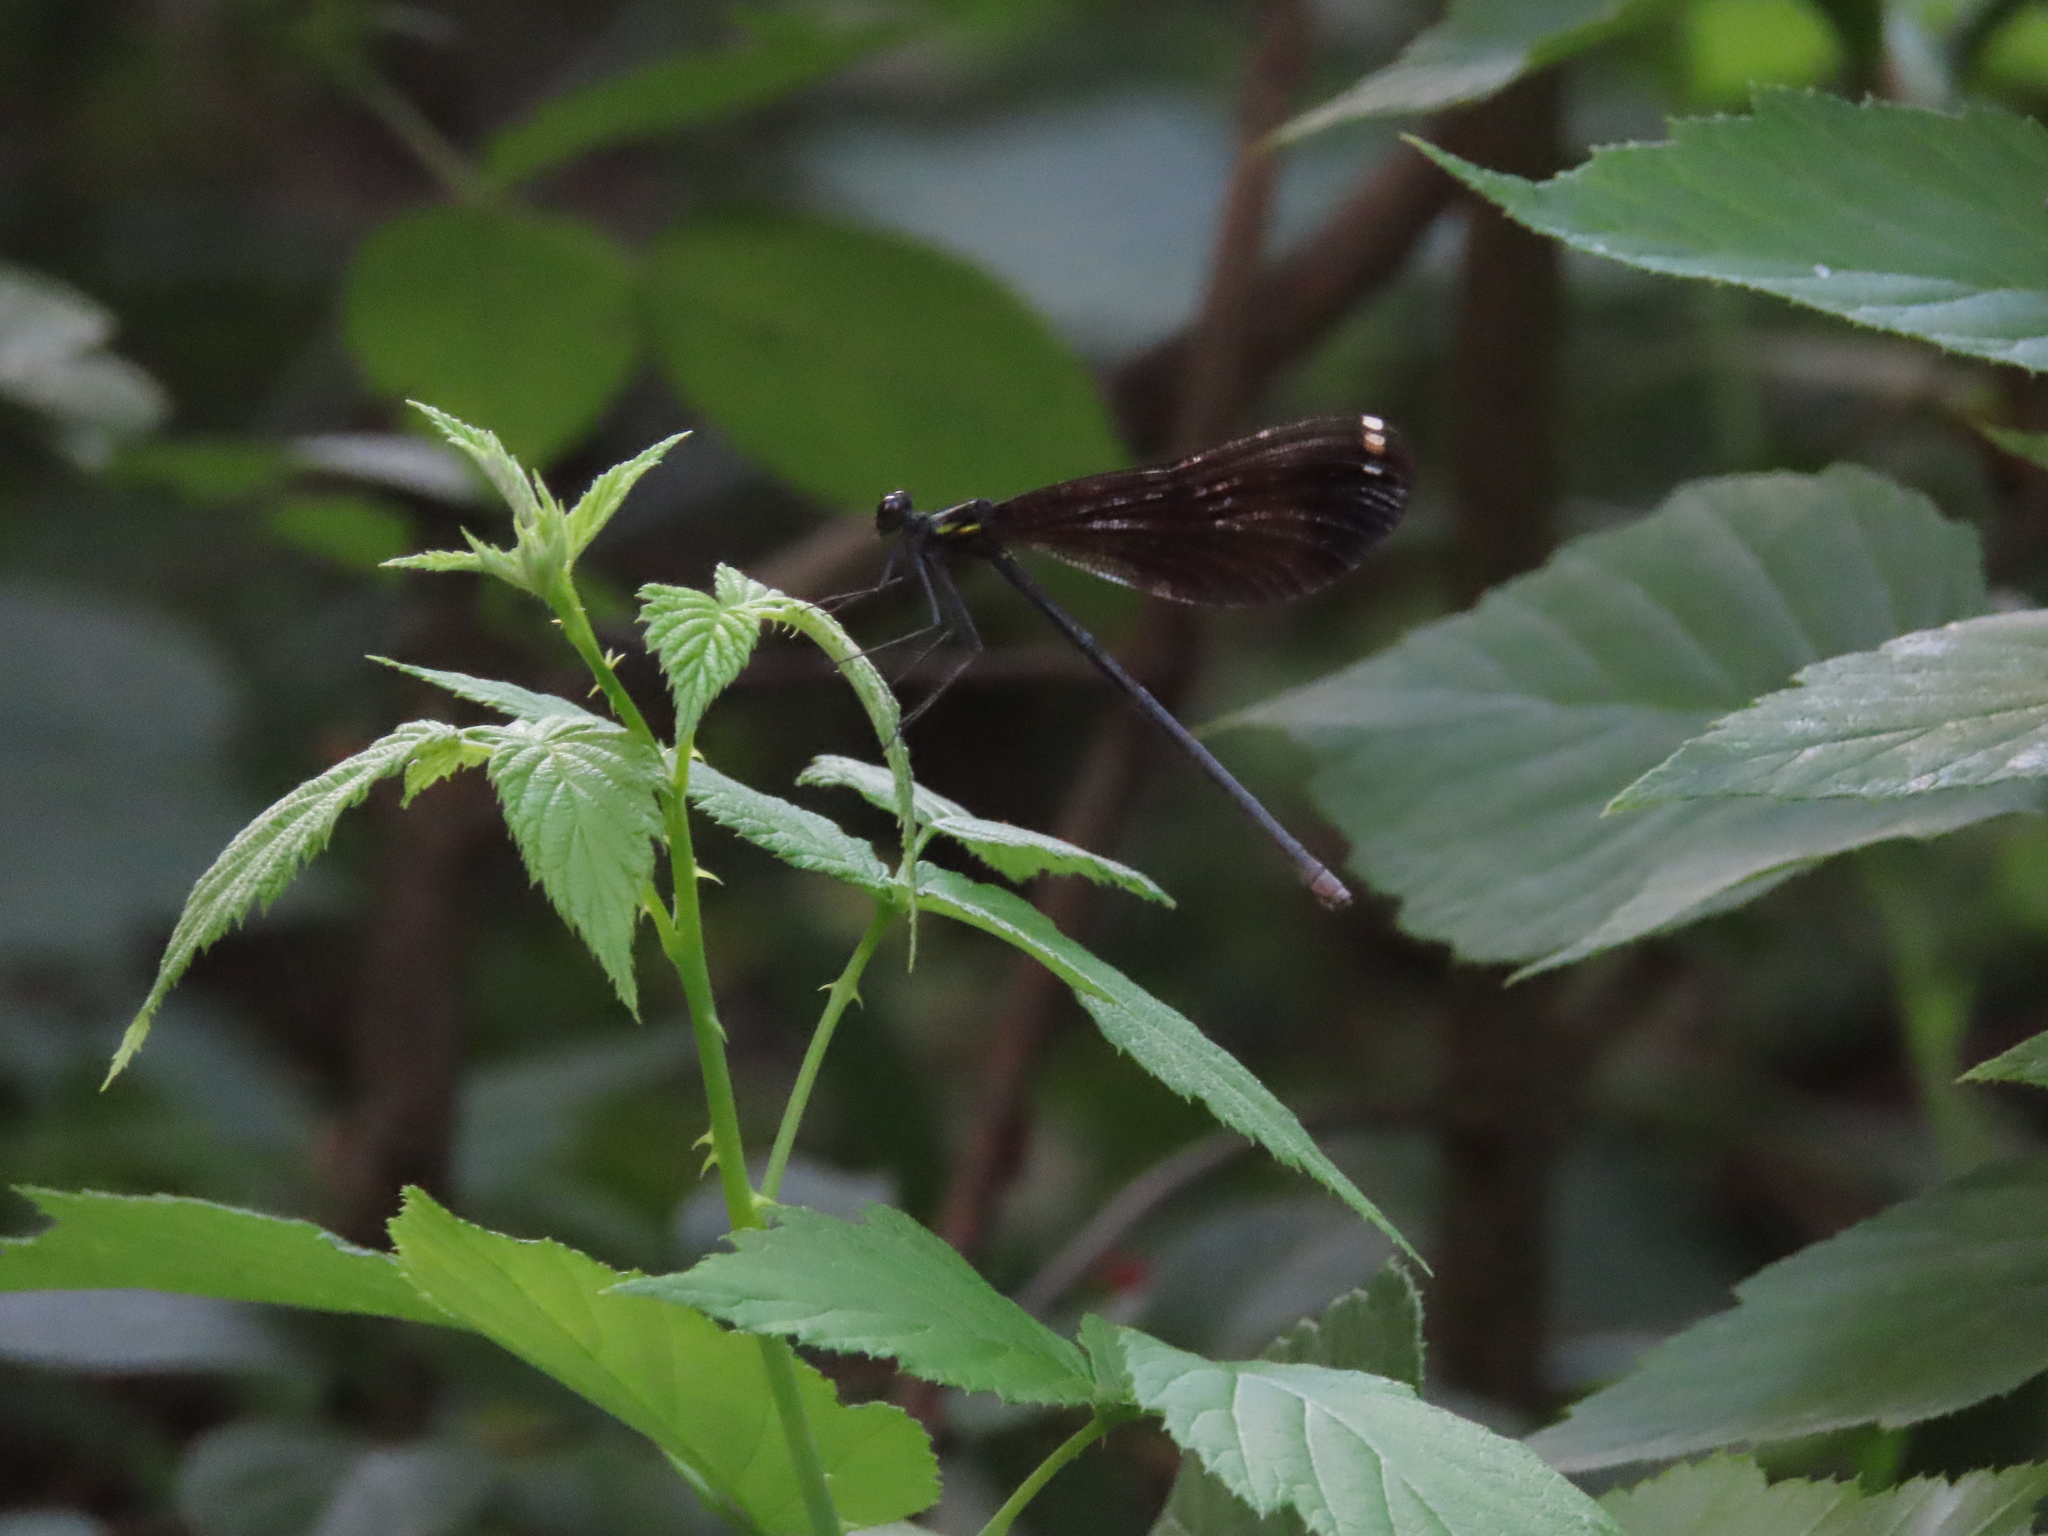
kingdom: Animalia
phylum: Arthropoda
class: Insecta
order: Odonata
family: Calopterygidae
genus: Calopteryx
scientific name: Calopteryx maculata
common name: Ebony jewelwing
